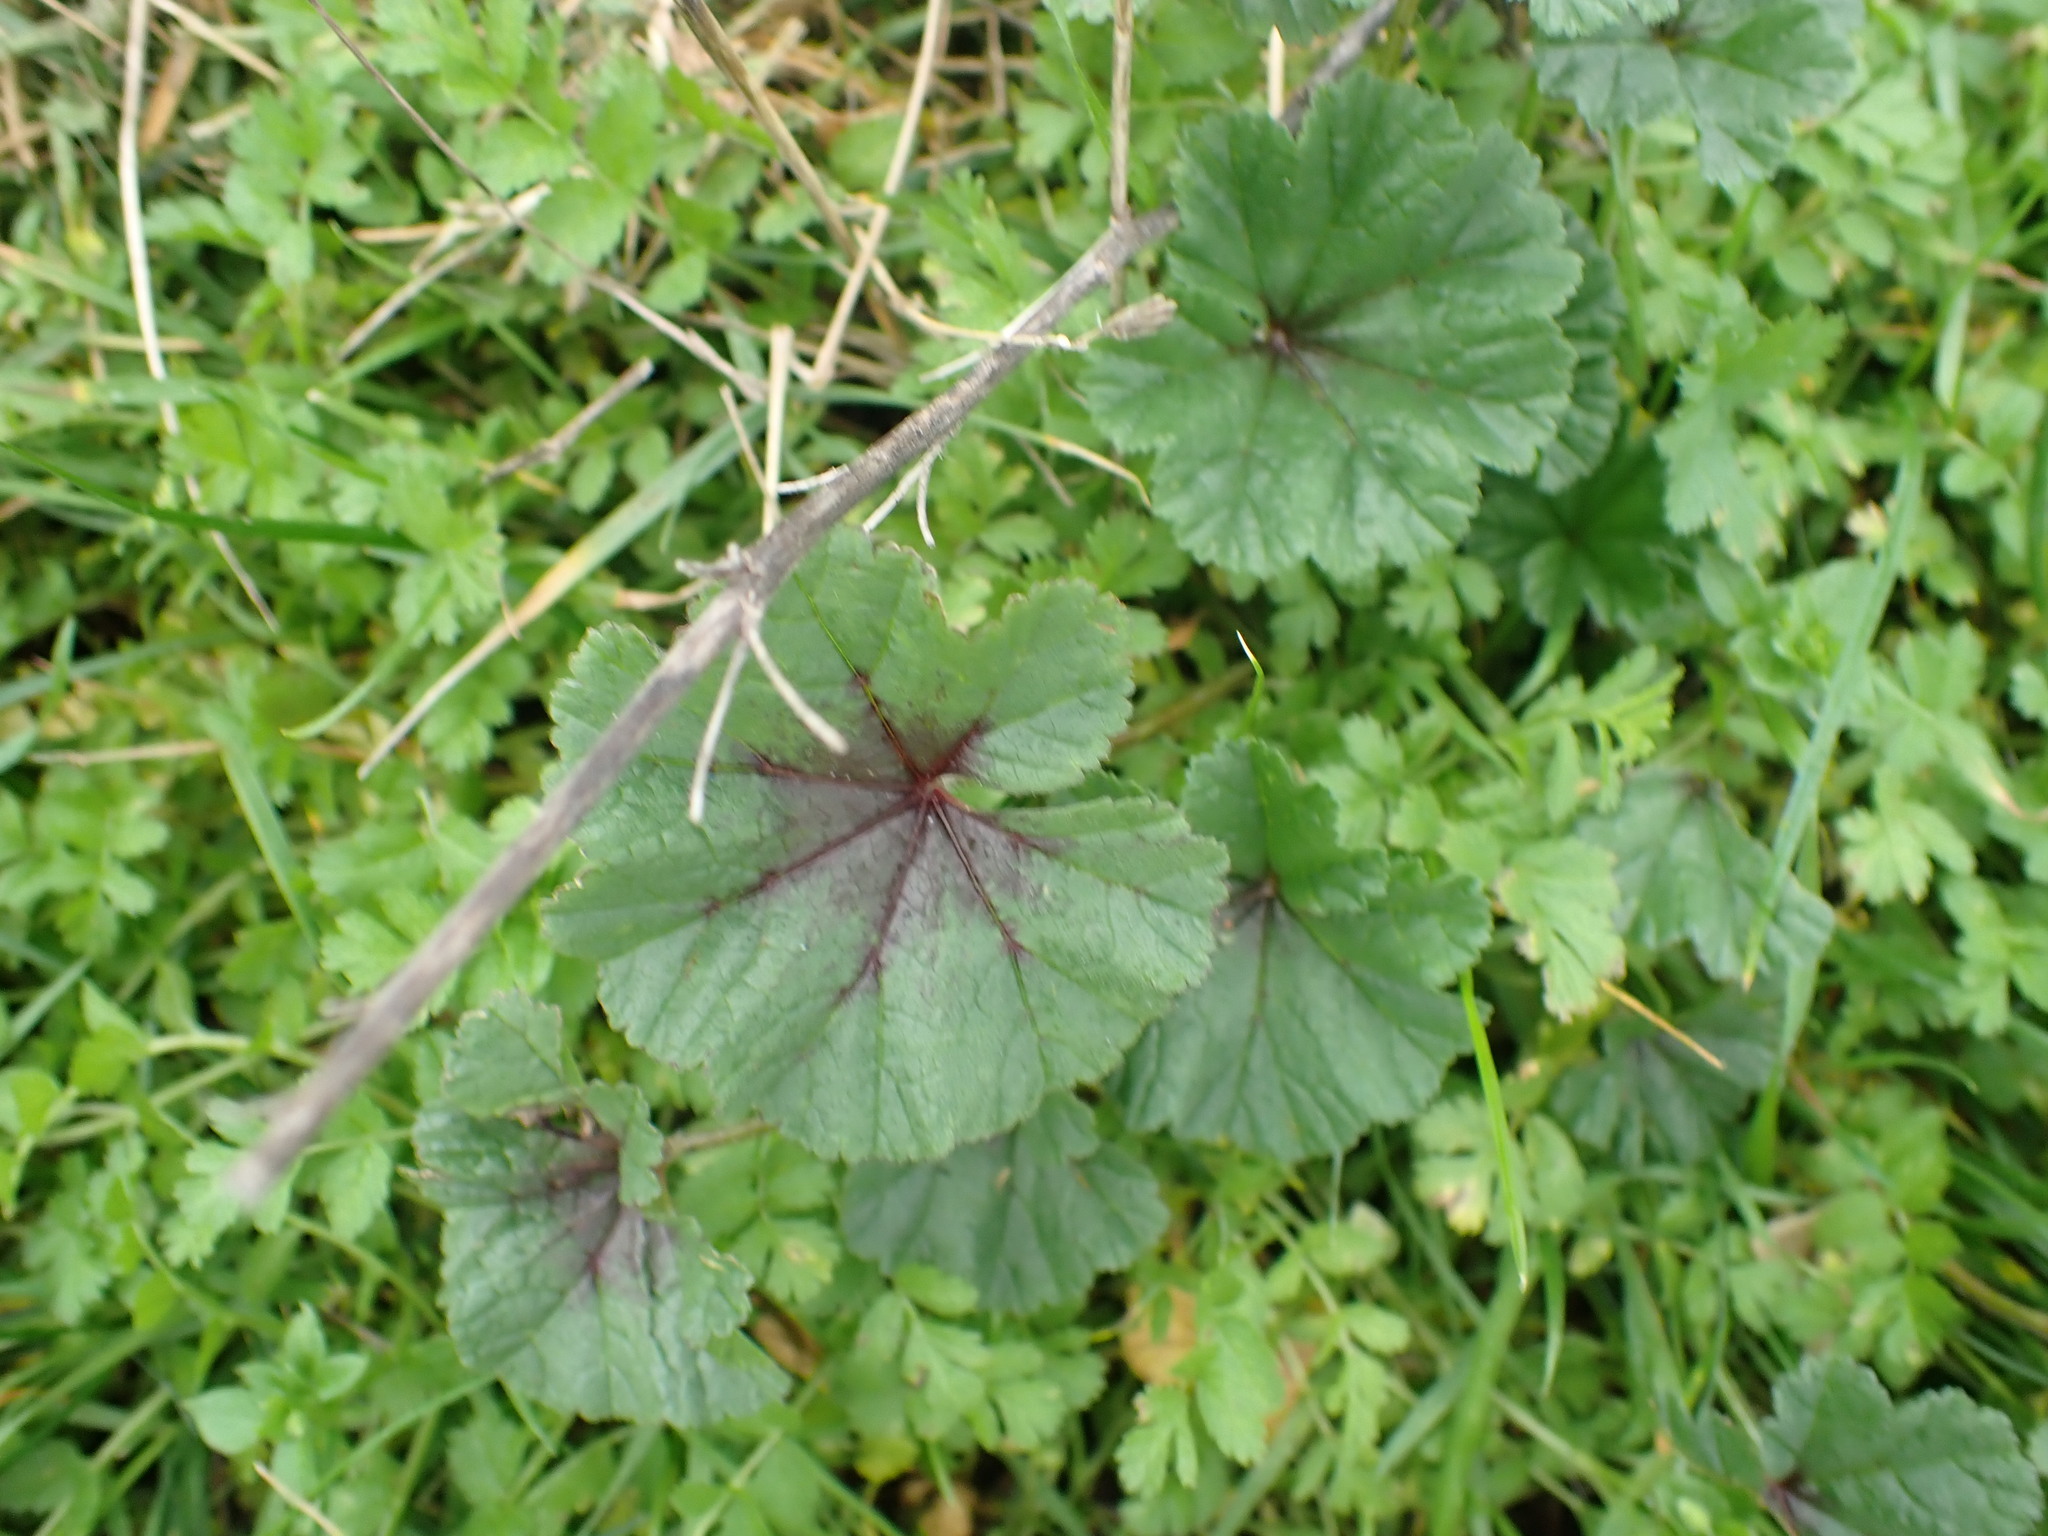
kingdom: Plantae
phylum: Tracheophyta
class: Magnoliopsida
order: Malvales
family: Malvaceae
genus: Malva
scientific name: Malva sylvestris
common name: Common mallow
